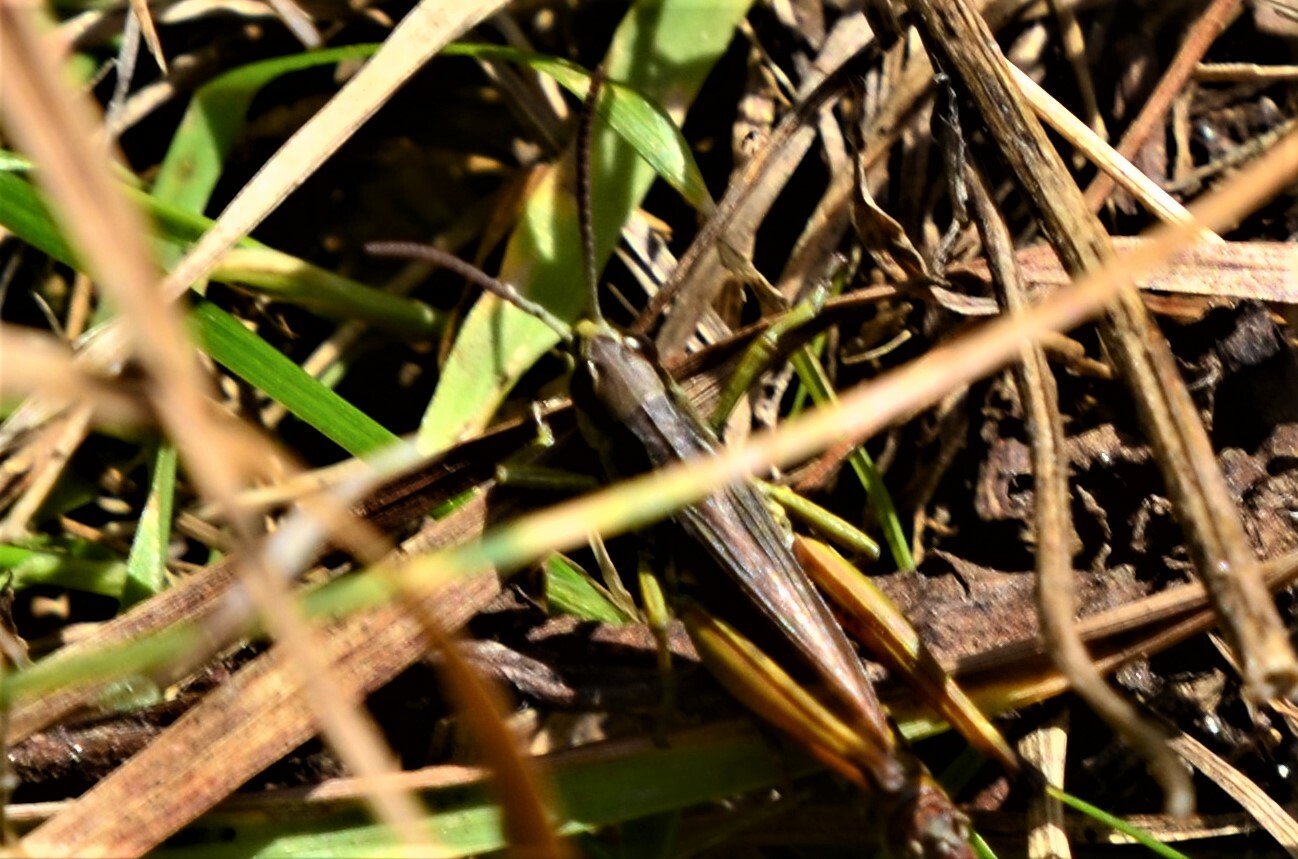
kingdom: Animalia
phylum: Arthropoda
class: Insecta
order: Orthoptera
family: Acrididae
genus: Pseudochorthippus
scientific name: Pseudochorthippus parallelus
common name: Meadow grasshopper
